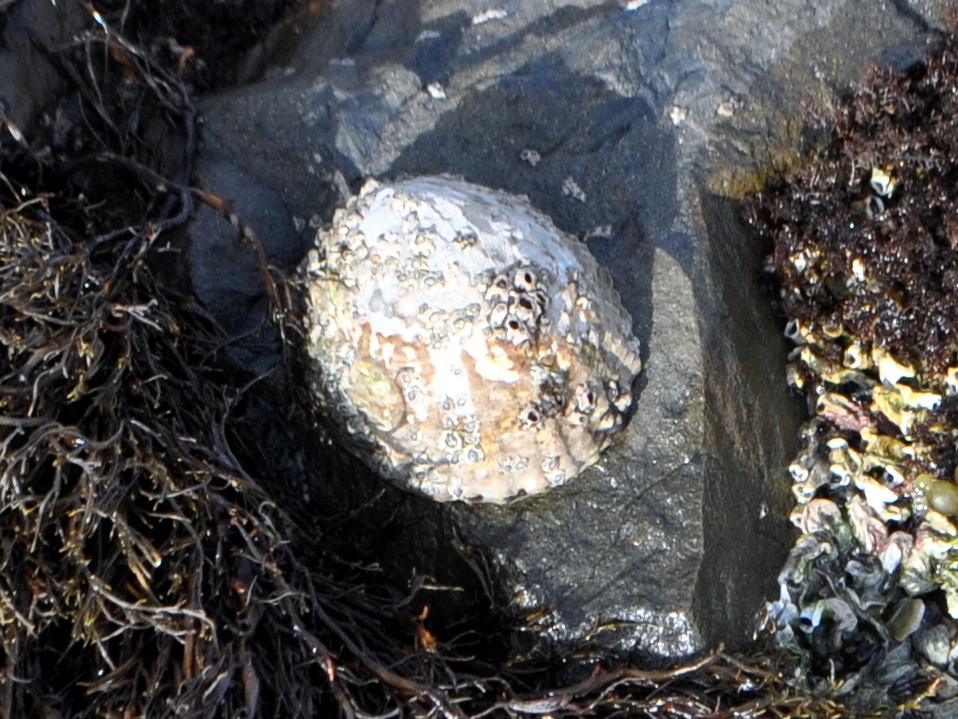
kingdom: Animalia
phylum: Mollusca
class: Gastropoda
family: Nacellidae
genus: Cellana
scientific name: Cellana denticulata
